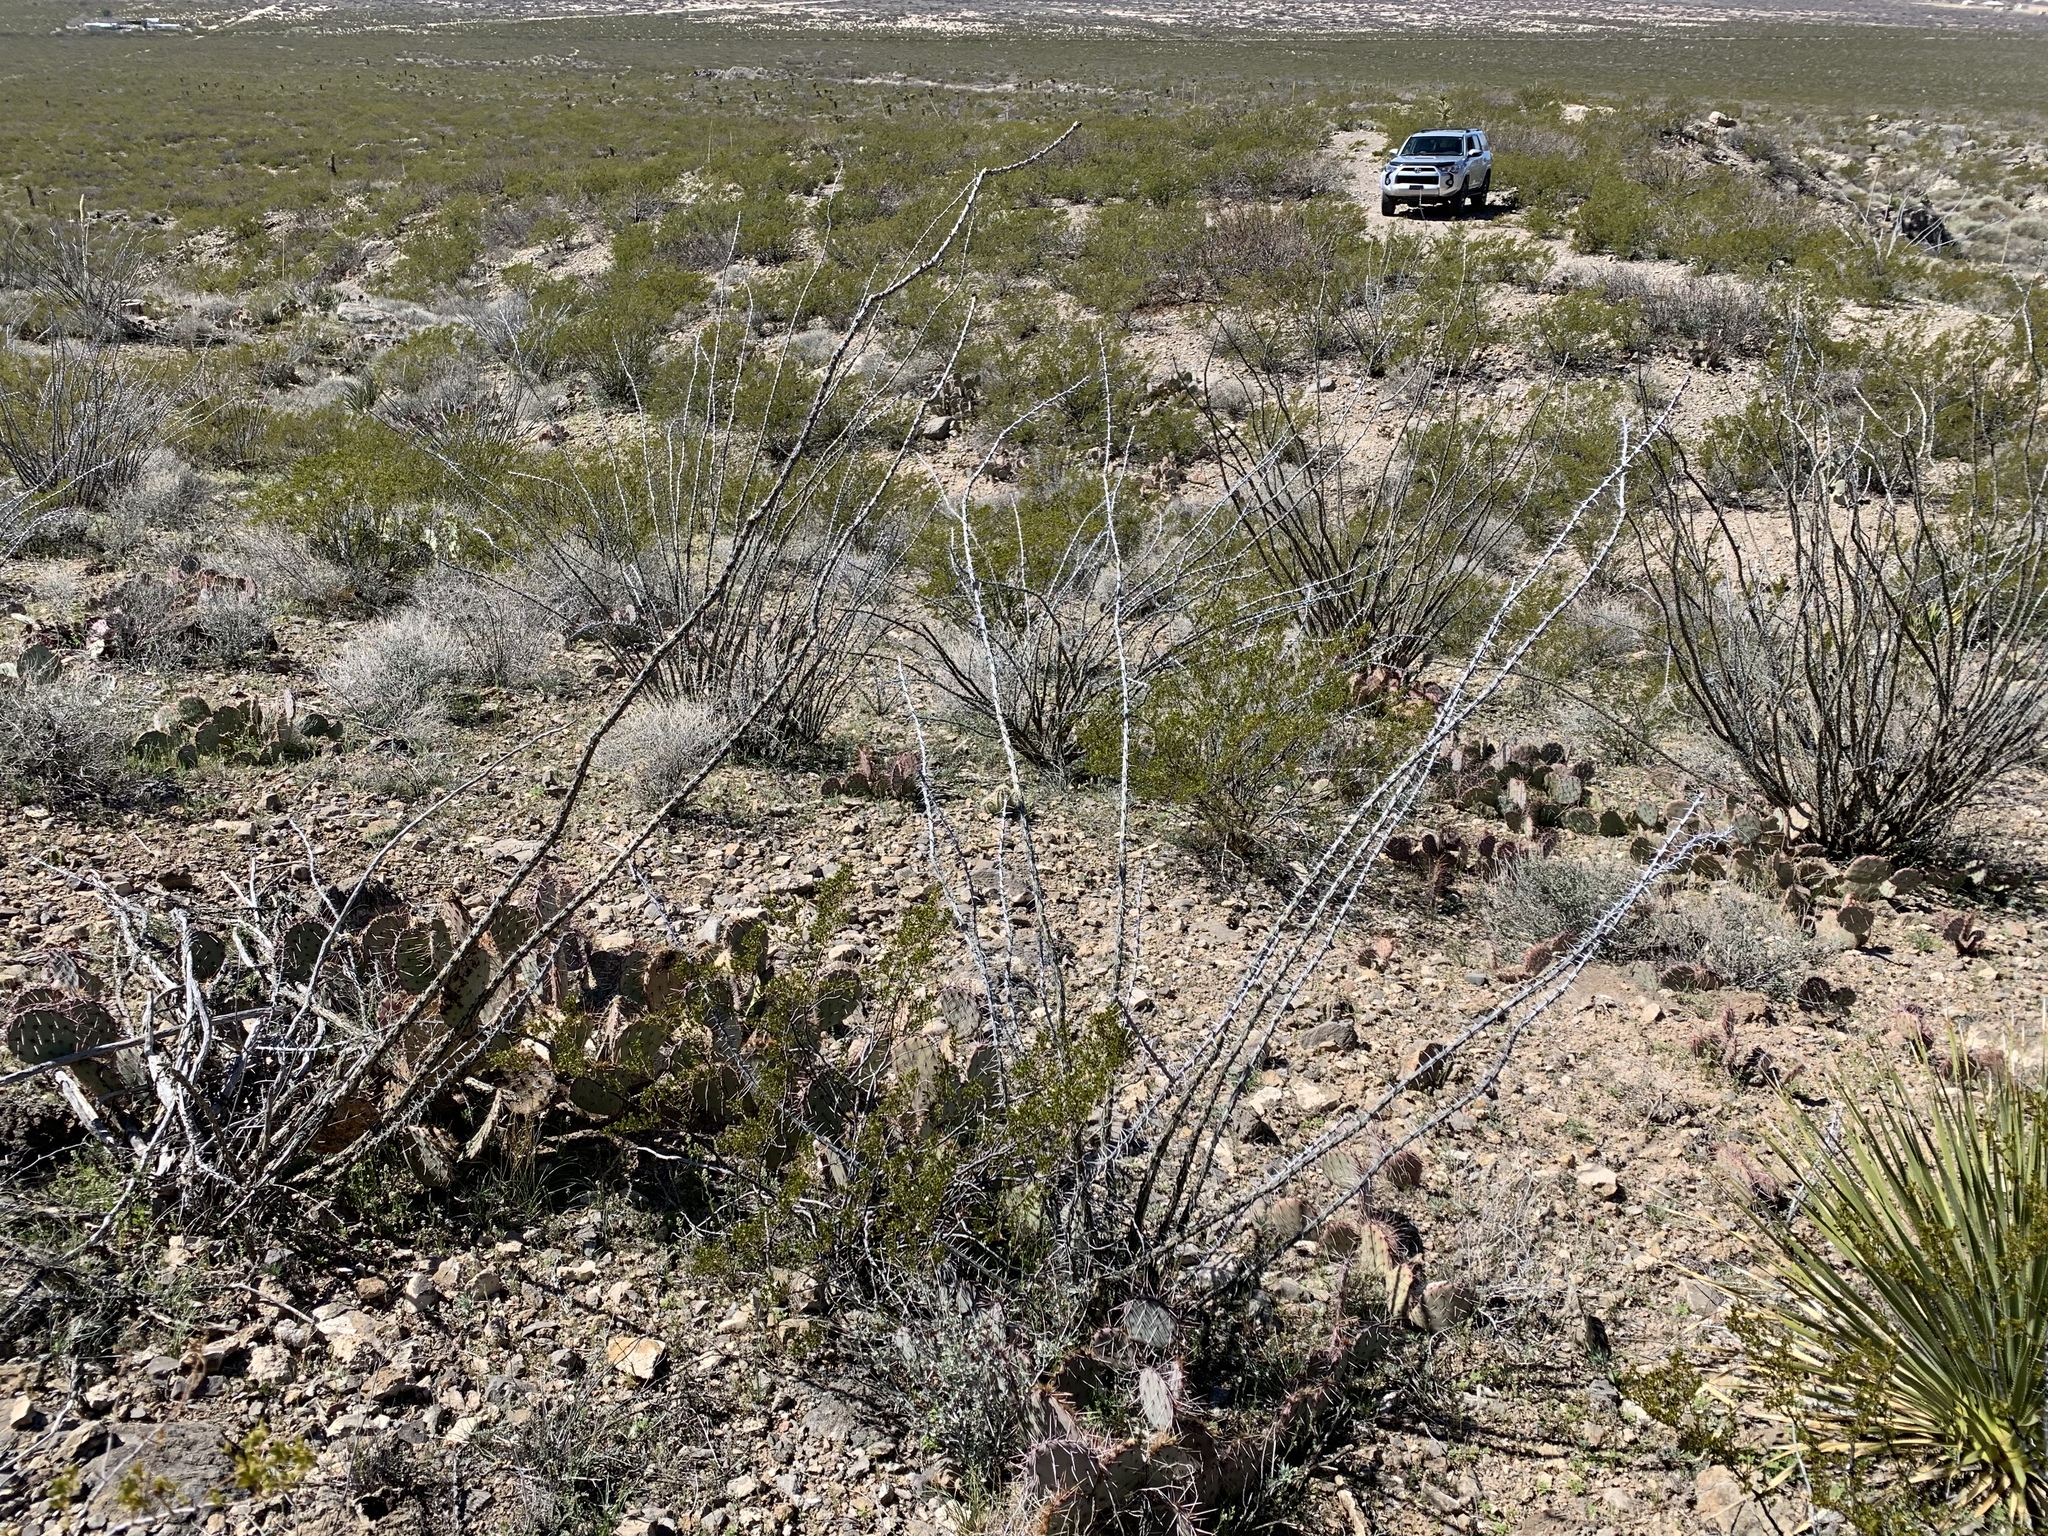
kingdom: Plantae
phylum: Tracheophyta
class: Magnoliopsida
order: Ericales
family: Fouquieriaceae
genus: Fouquieria
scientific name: Fouquieria splendens
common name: Vine-cactus
